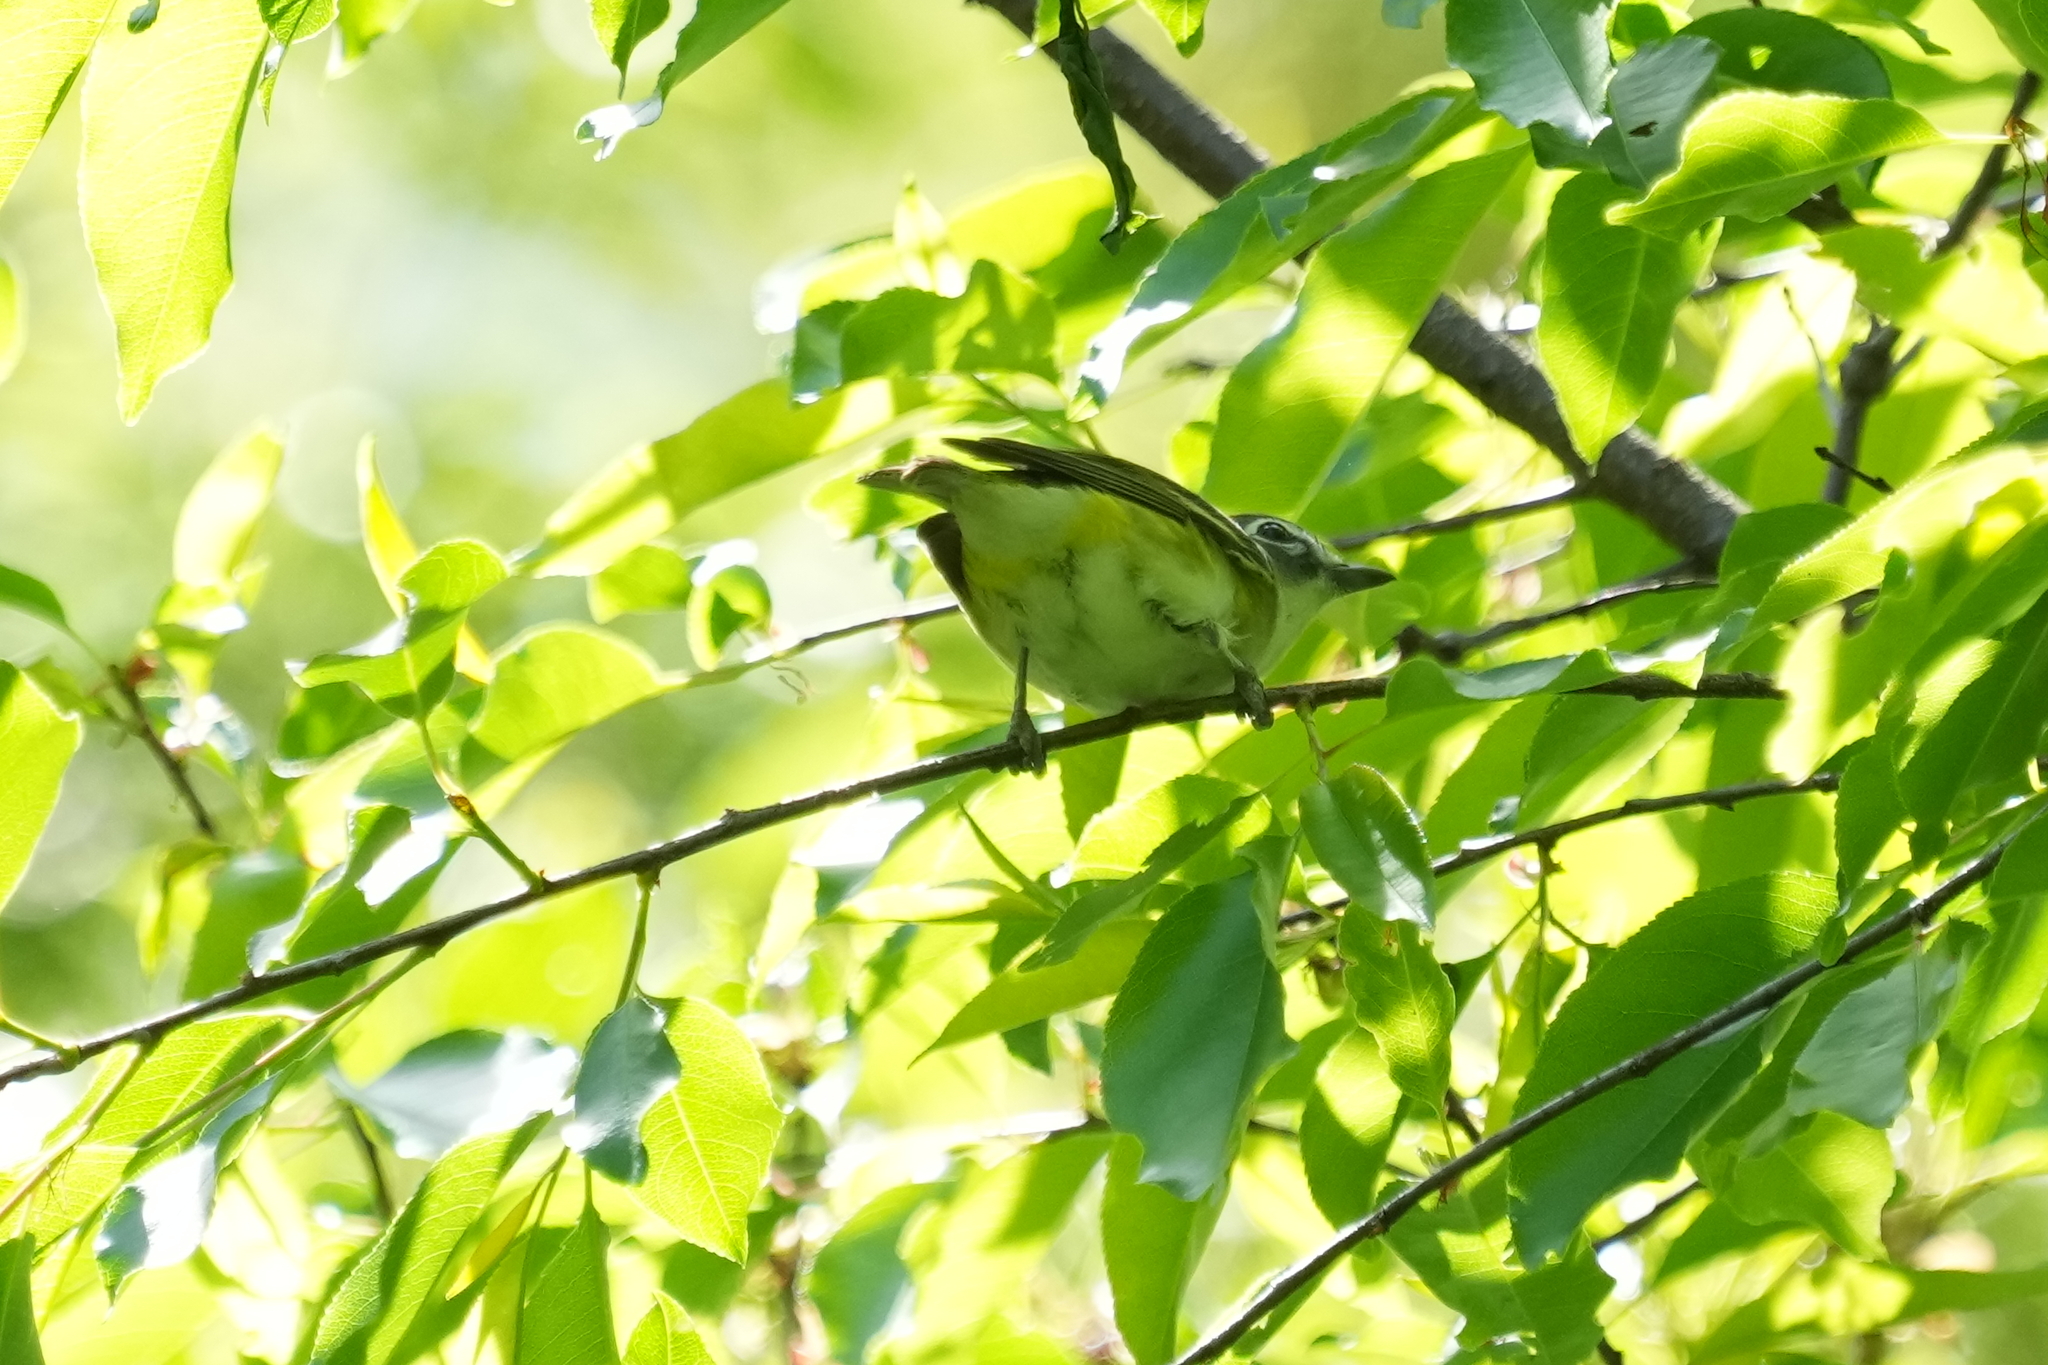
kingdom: Animalia
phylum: Chordata
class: Aves
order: Passeriformes
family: Vireonidae
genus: Vireo
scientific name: Vireo solitarius
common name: Blue-headed vireo
